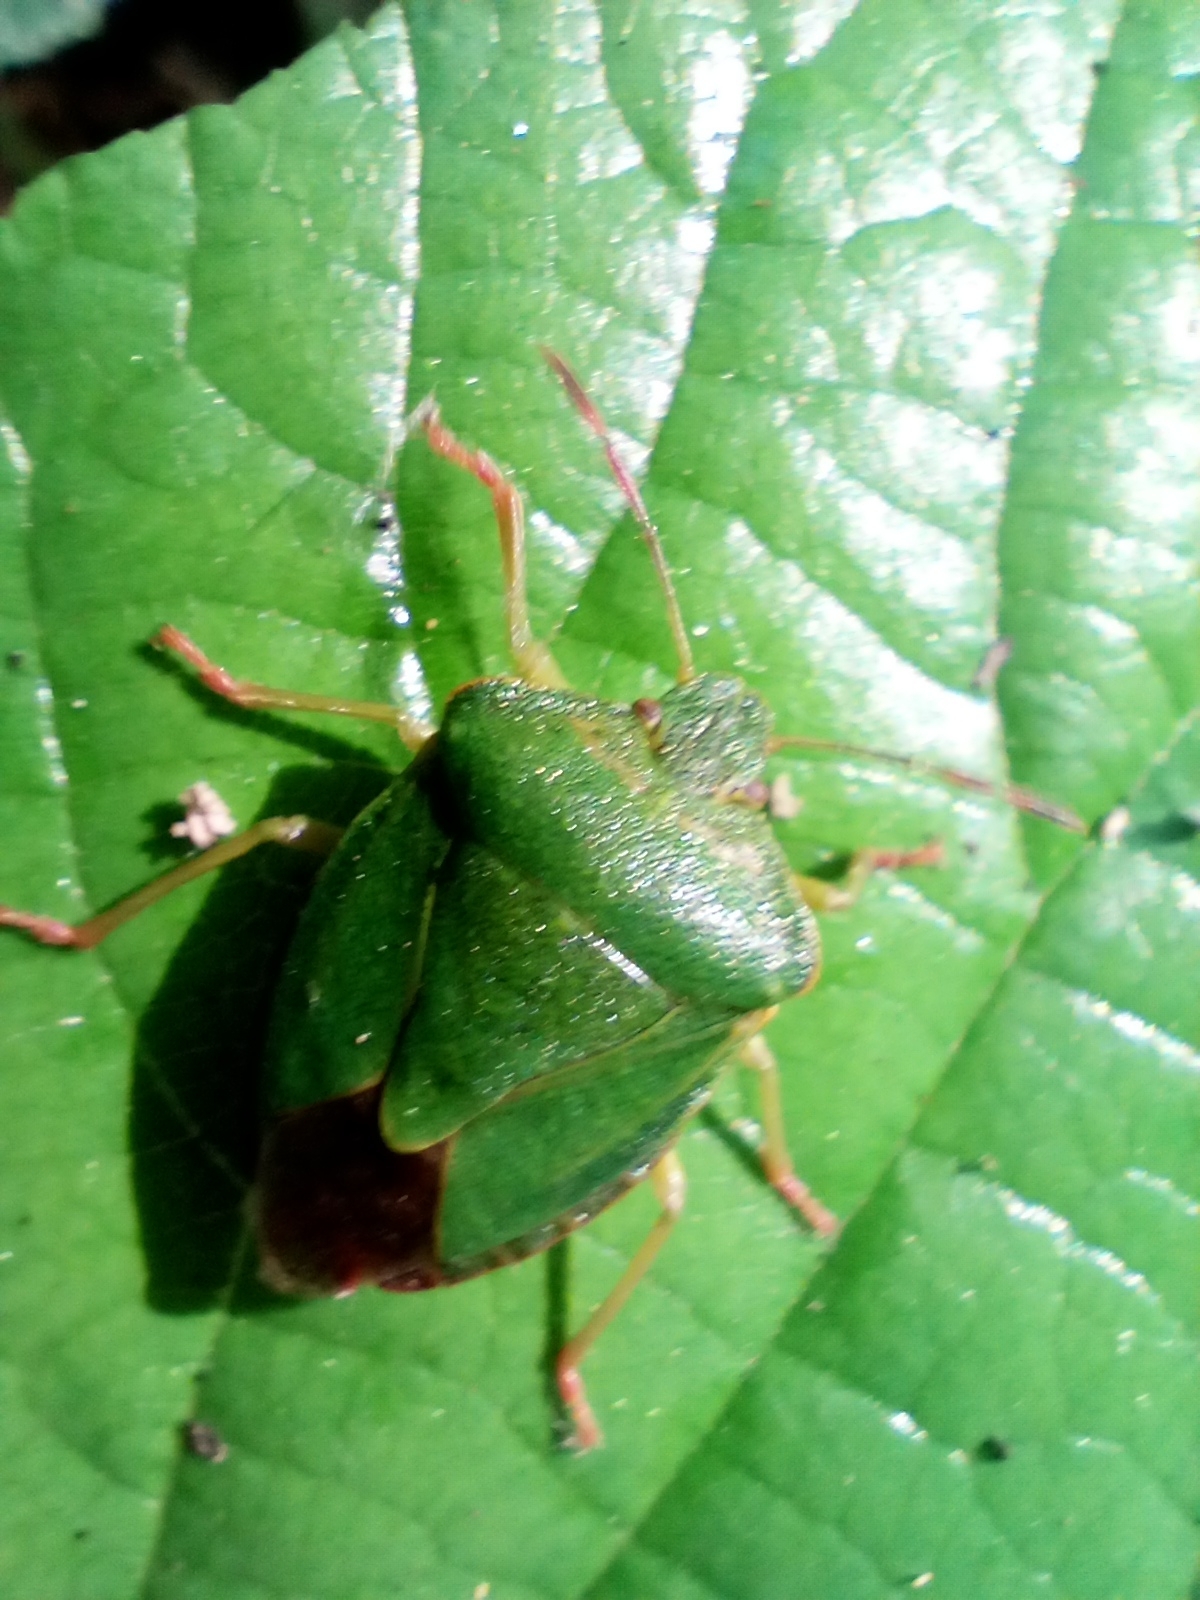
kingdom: Animalia
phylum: Arthropoda
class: Insecta
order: Hemiptera
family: Pentatomidae
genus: Palomena
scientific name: Palomena prasina
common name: Green shieldbug
